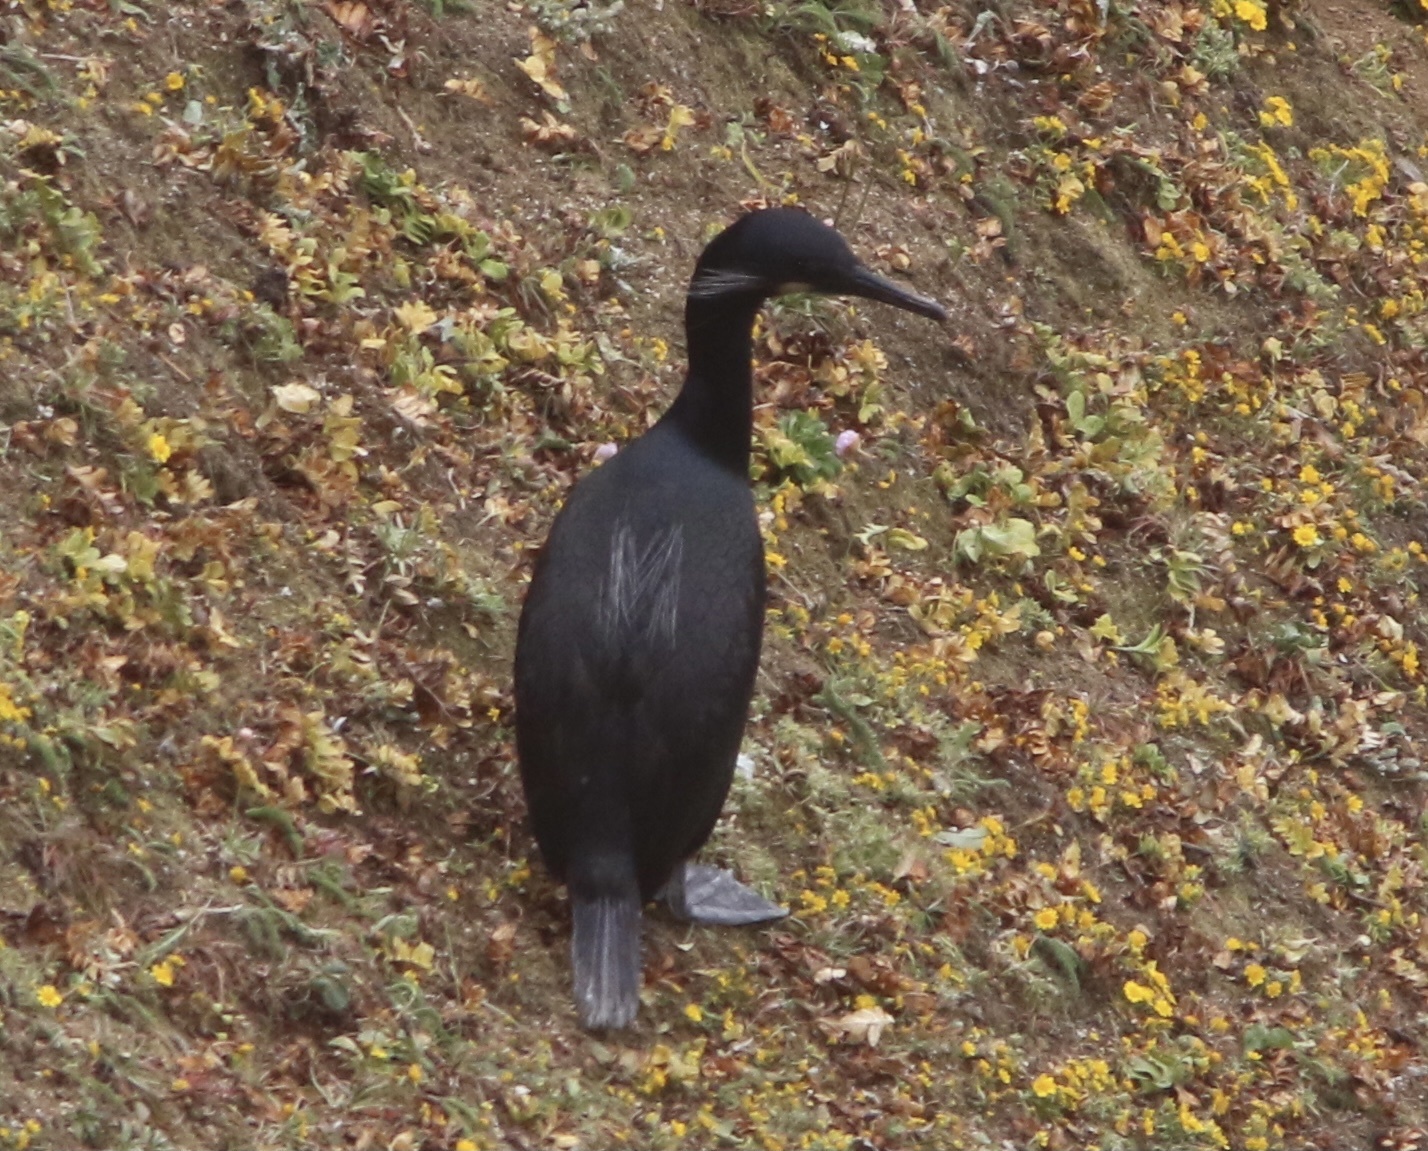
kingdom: Animalia
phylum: Chordata
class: Aves
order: Suliformes
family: Phalacrocoracidae
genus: Urile
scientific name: Urile penicillatus
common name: Brandt's cormorant
